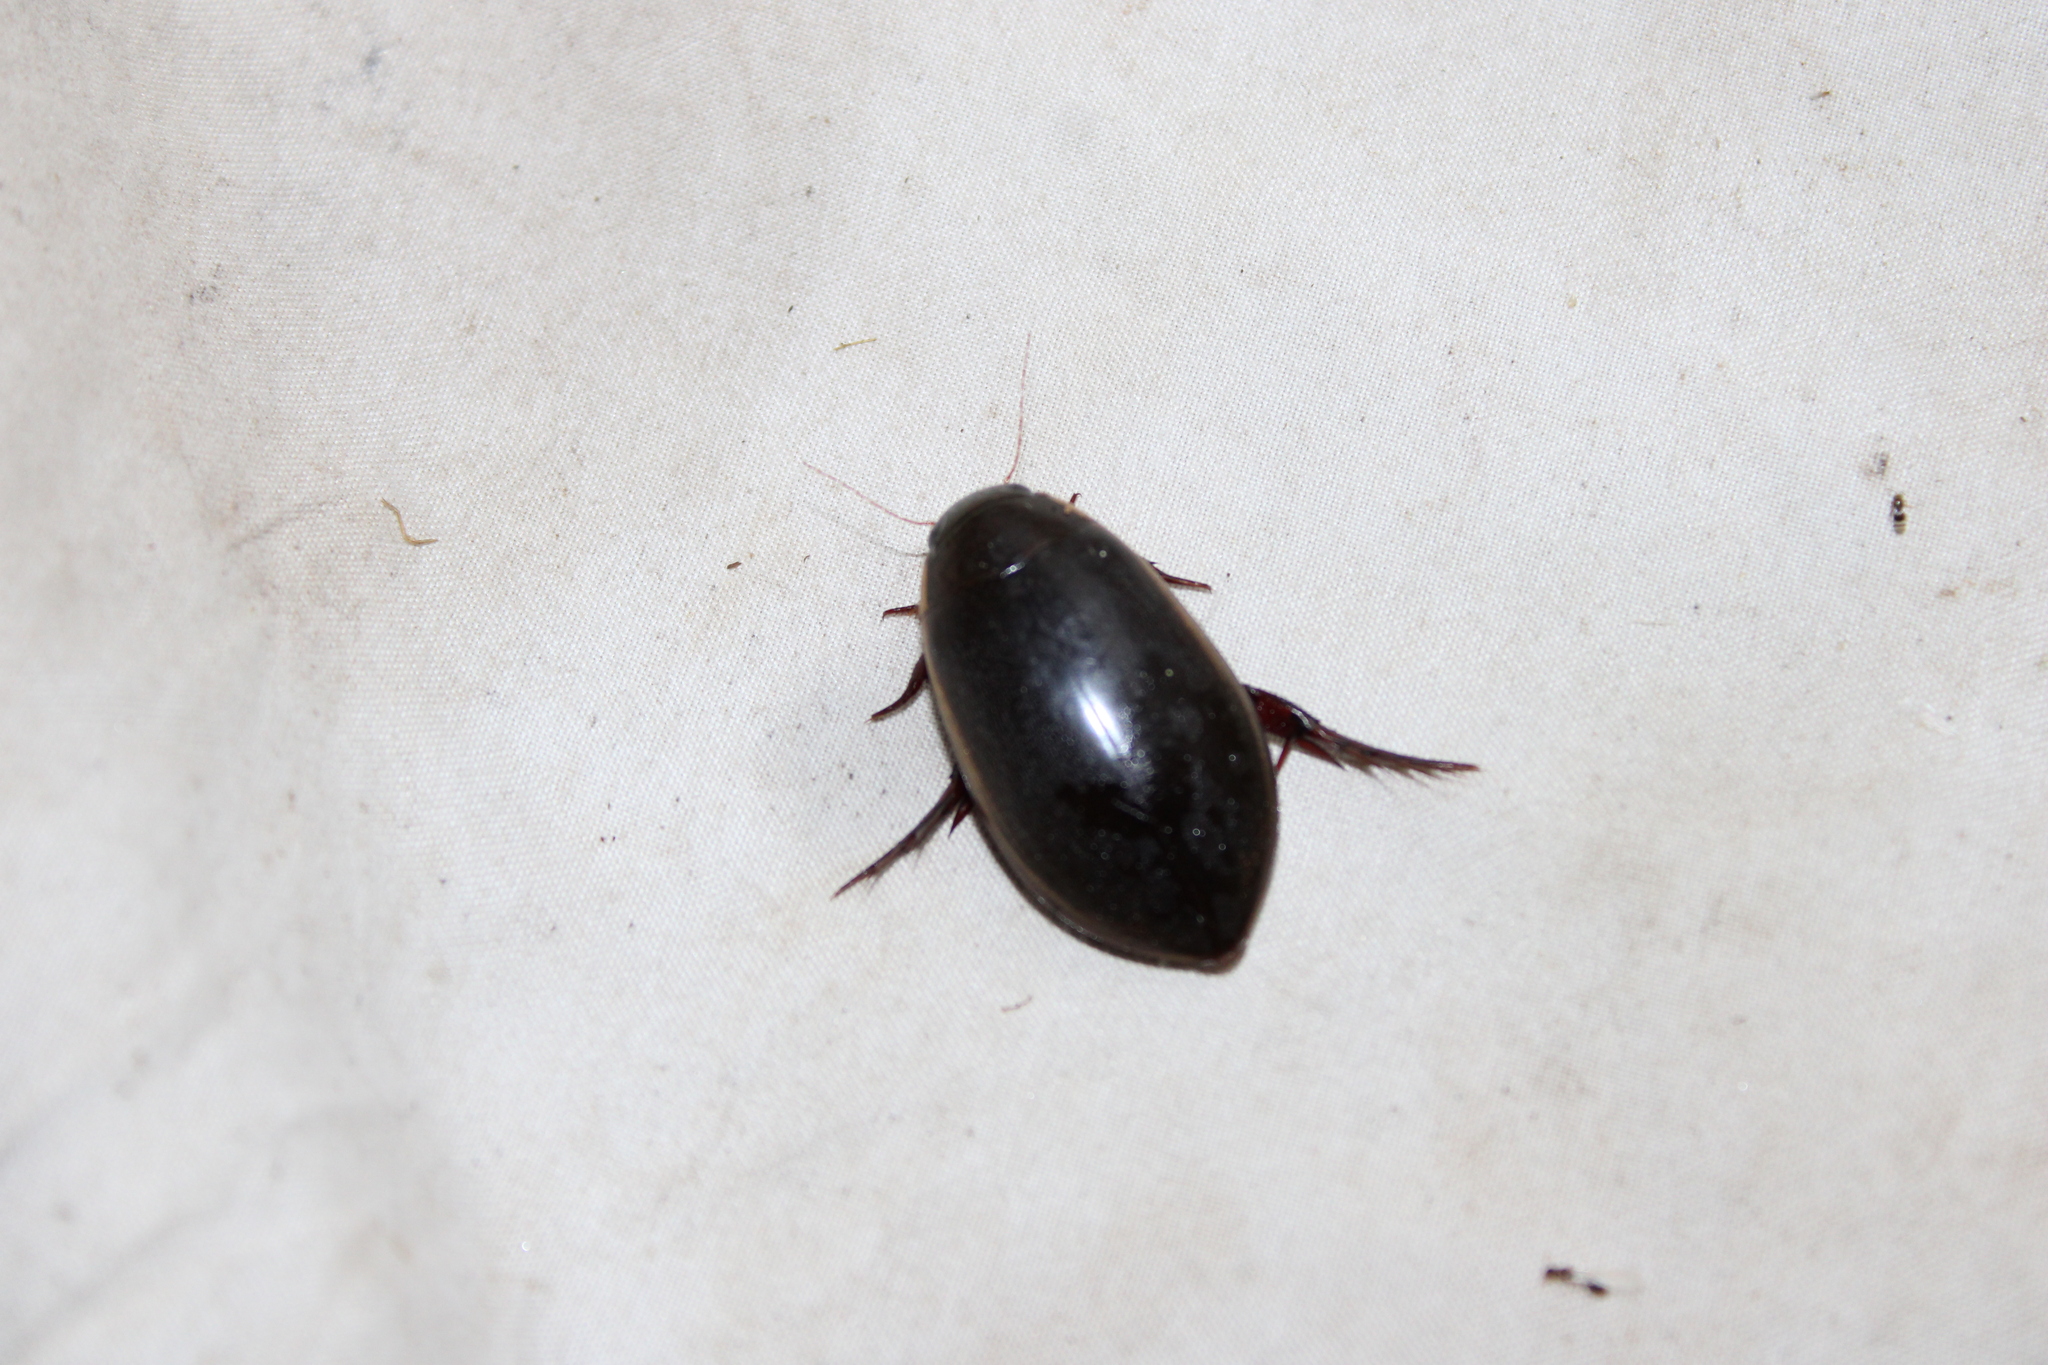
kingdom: Animalia
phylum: Arthropoda
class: Insecta
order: Coleoptera
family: Dytiscidae
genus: Cybister
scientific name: Cybister fimbriolatus
